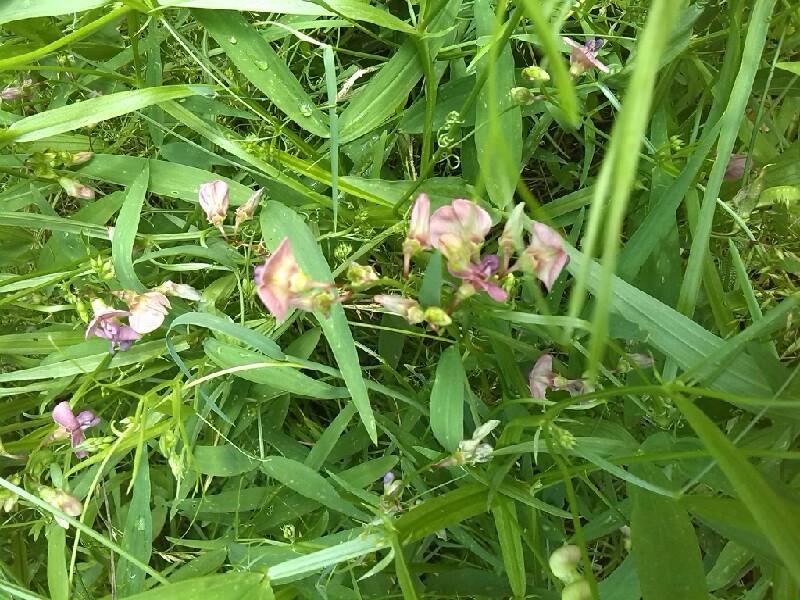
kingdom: Plantae
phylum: Tracheophyta
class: Magnoliopsida
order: Fabales
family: Fabaceae
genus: Lathyrus
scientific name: Lathyrus sylvestris
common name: Flat pea
